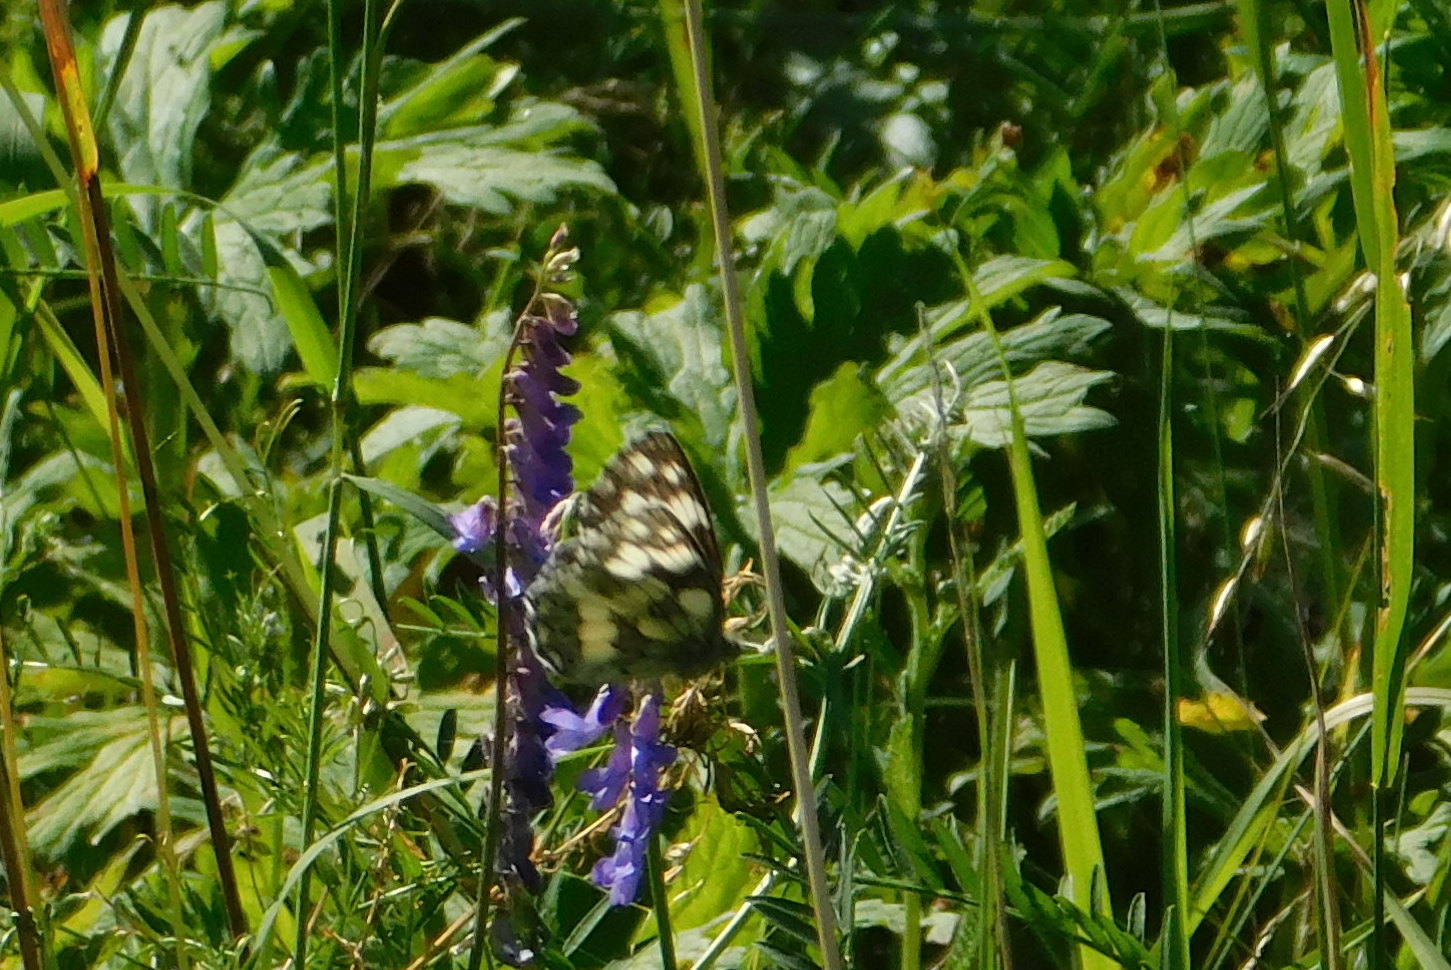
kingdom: Animalia
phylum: Arthropoda
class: Insecta
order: Lepidoptera
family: Nymphalidae
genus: Melanargia
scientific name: Melanargia galathea
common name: Marbled white
